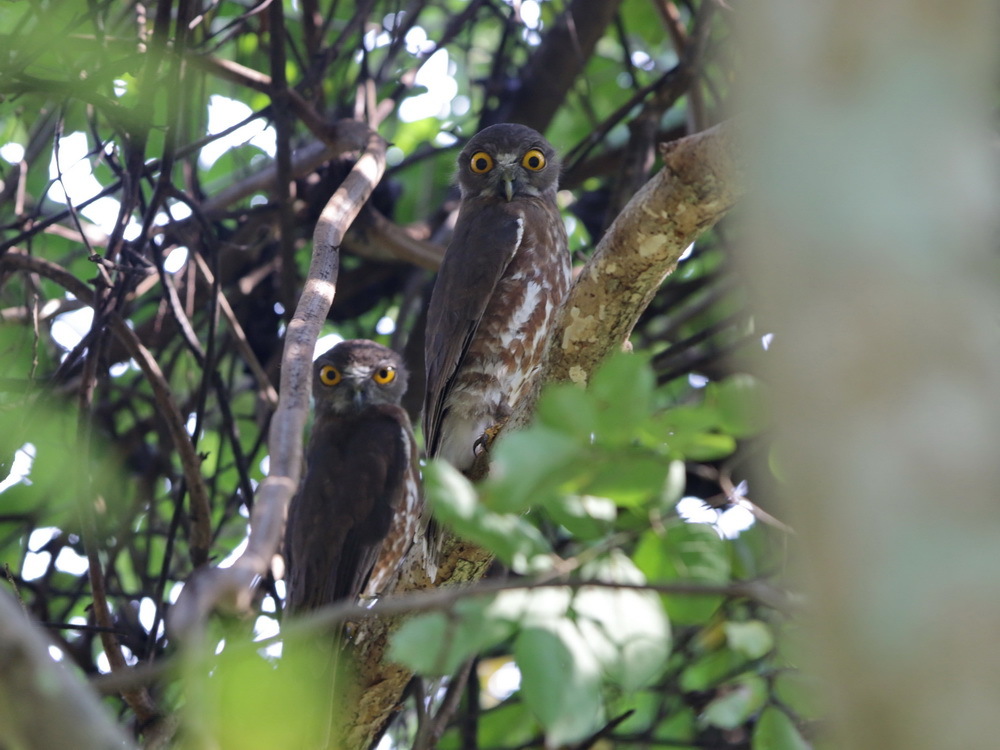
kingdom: Animalia
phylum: Chordata
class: Aves
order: Strigiformes
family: Strigidae
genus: Ninox
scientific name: Ninox scutulata
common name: Brown hawk-owl
